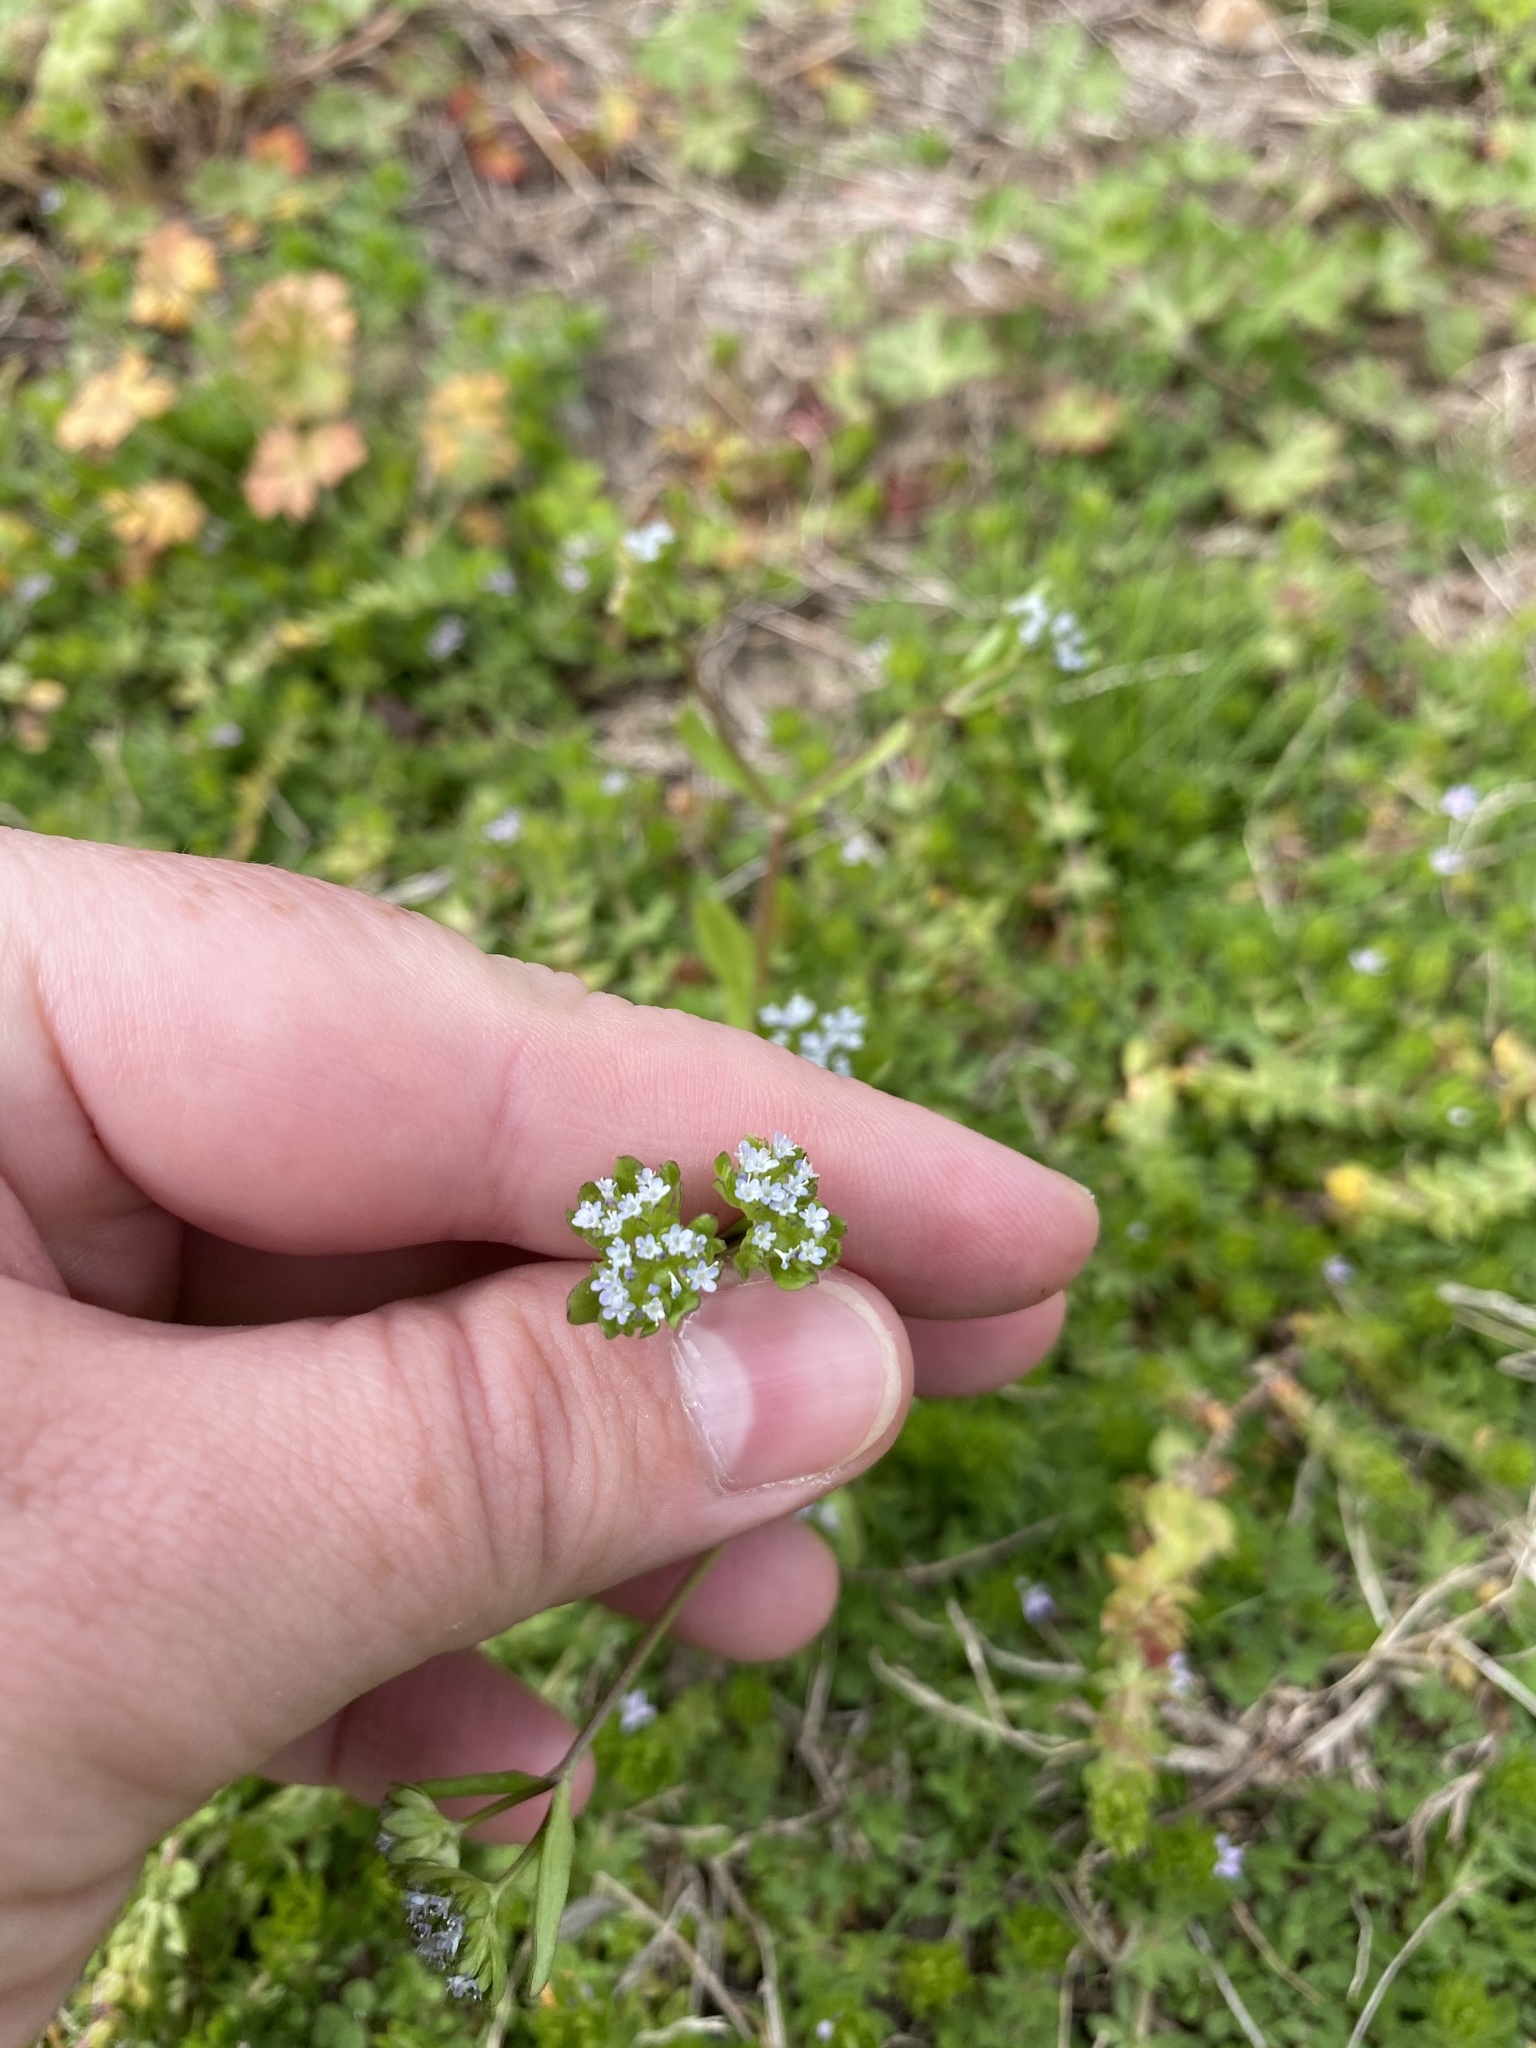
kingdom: Plantae
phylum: Tracheophyta
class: Magnoliopsida
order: Dipsacales
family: Caprifoliaceae
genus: Valerianella
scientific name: Valerianella locusta
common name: Common cornsalad
